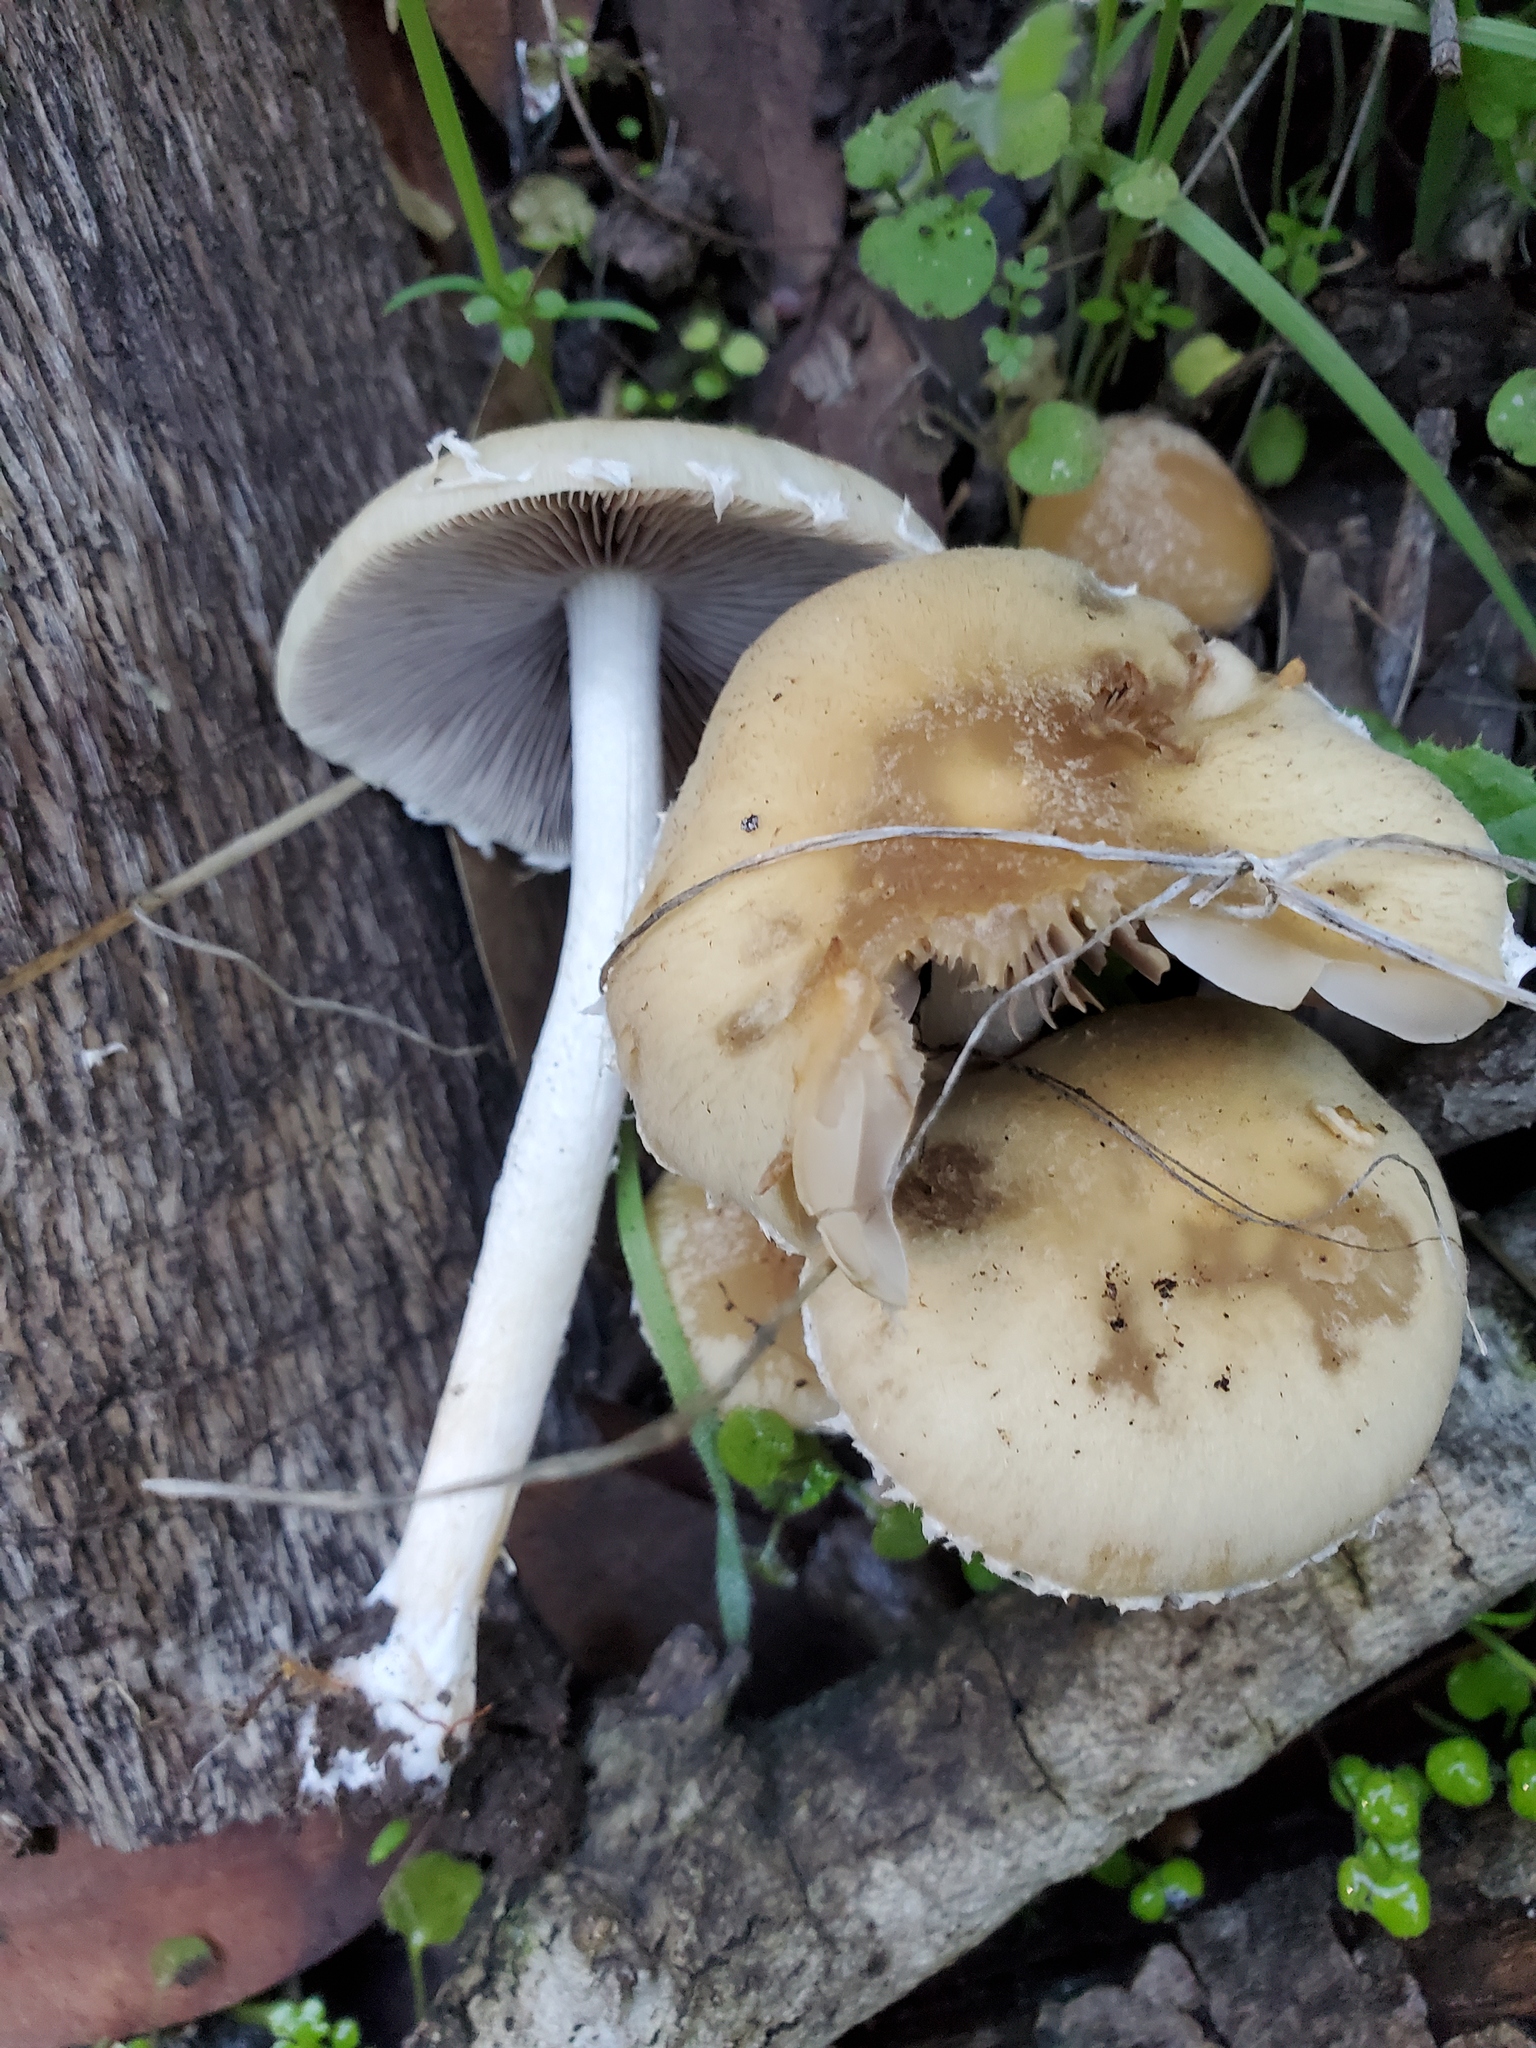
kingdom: Fungi
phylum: Basidiomycota
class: Agaricomycetes
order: Agaricales
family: Psathyrellaceae
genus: Candolleomyces
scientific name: Candolleomyces candolleanus
